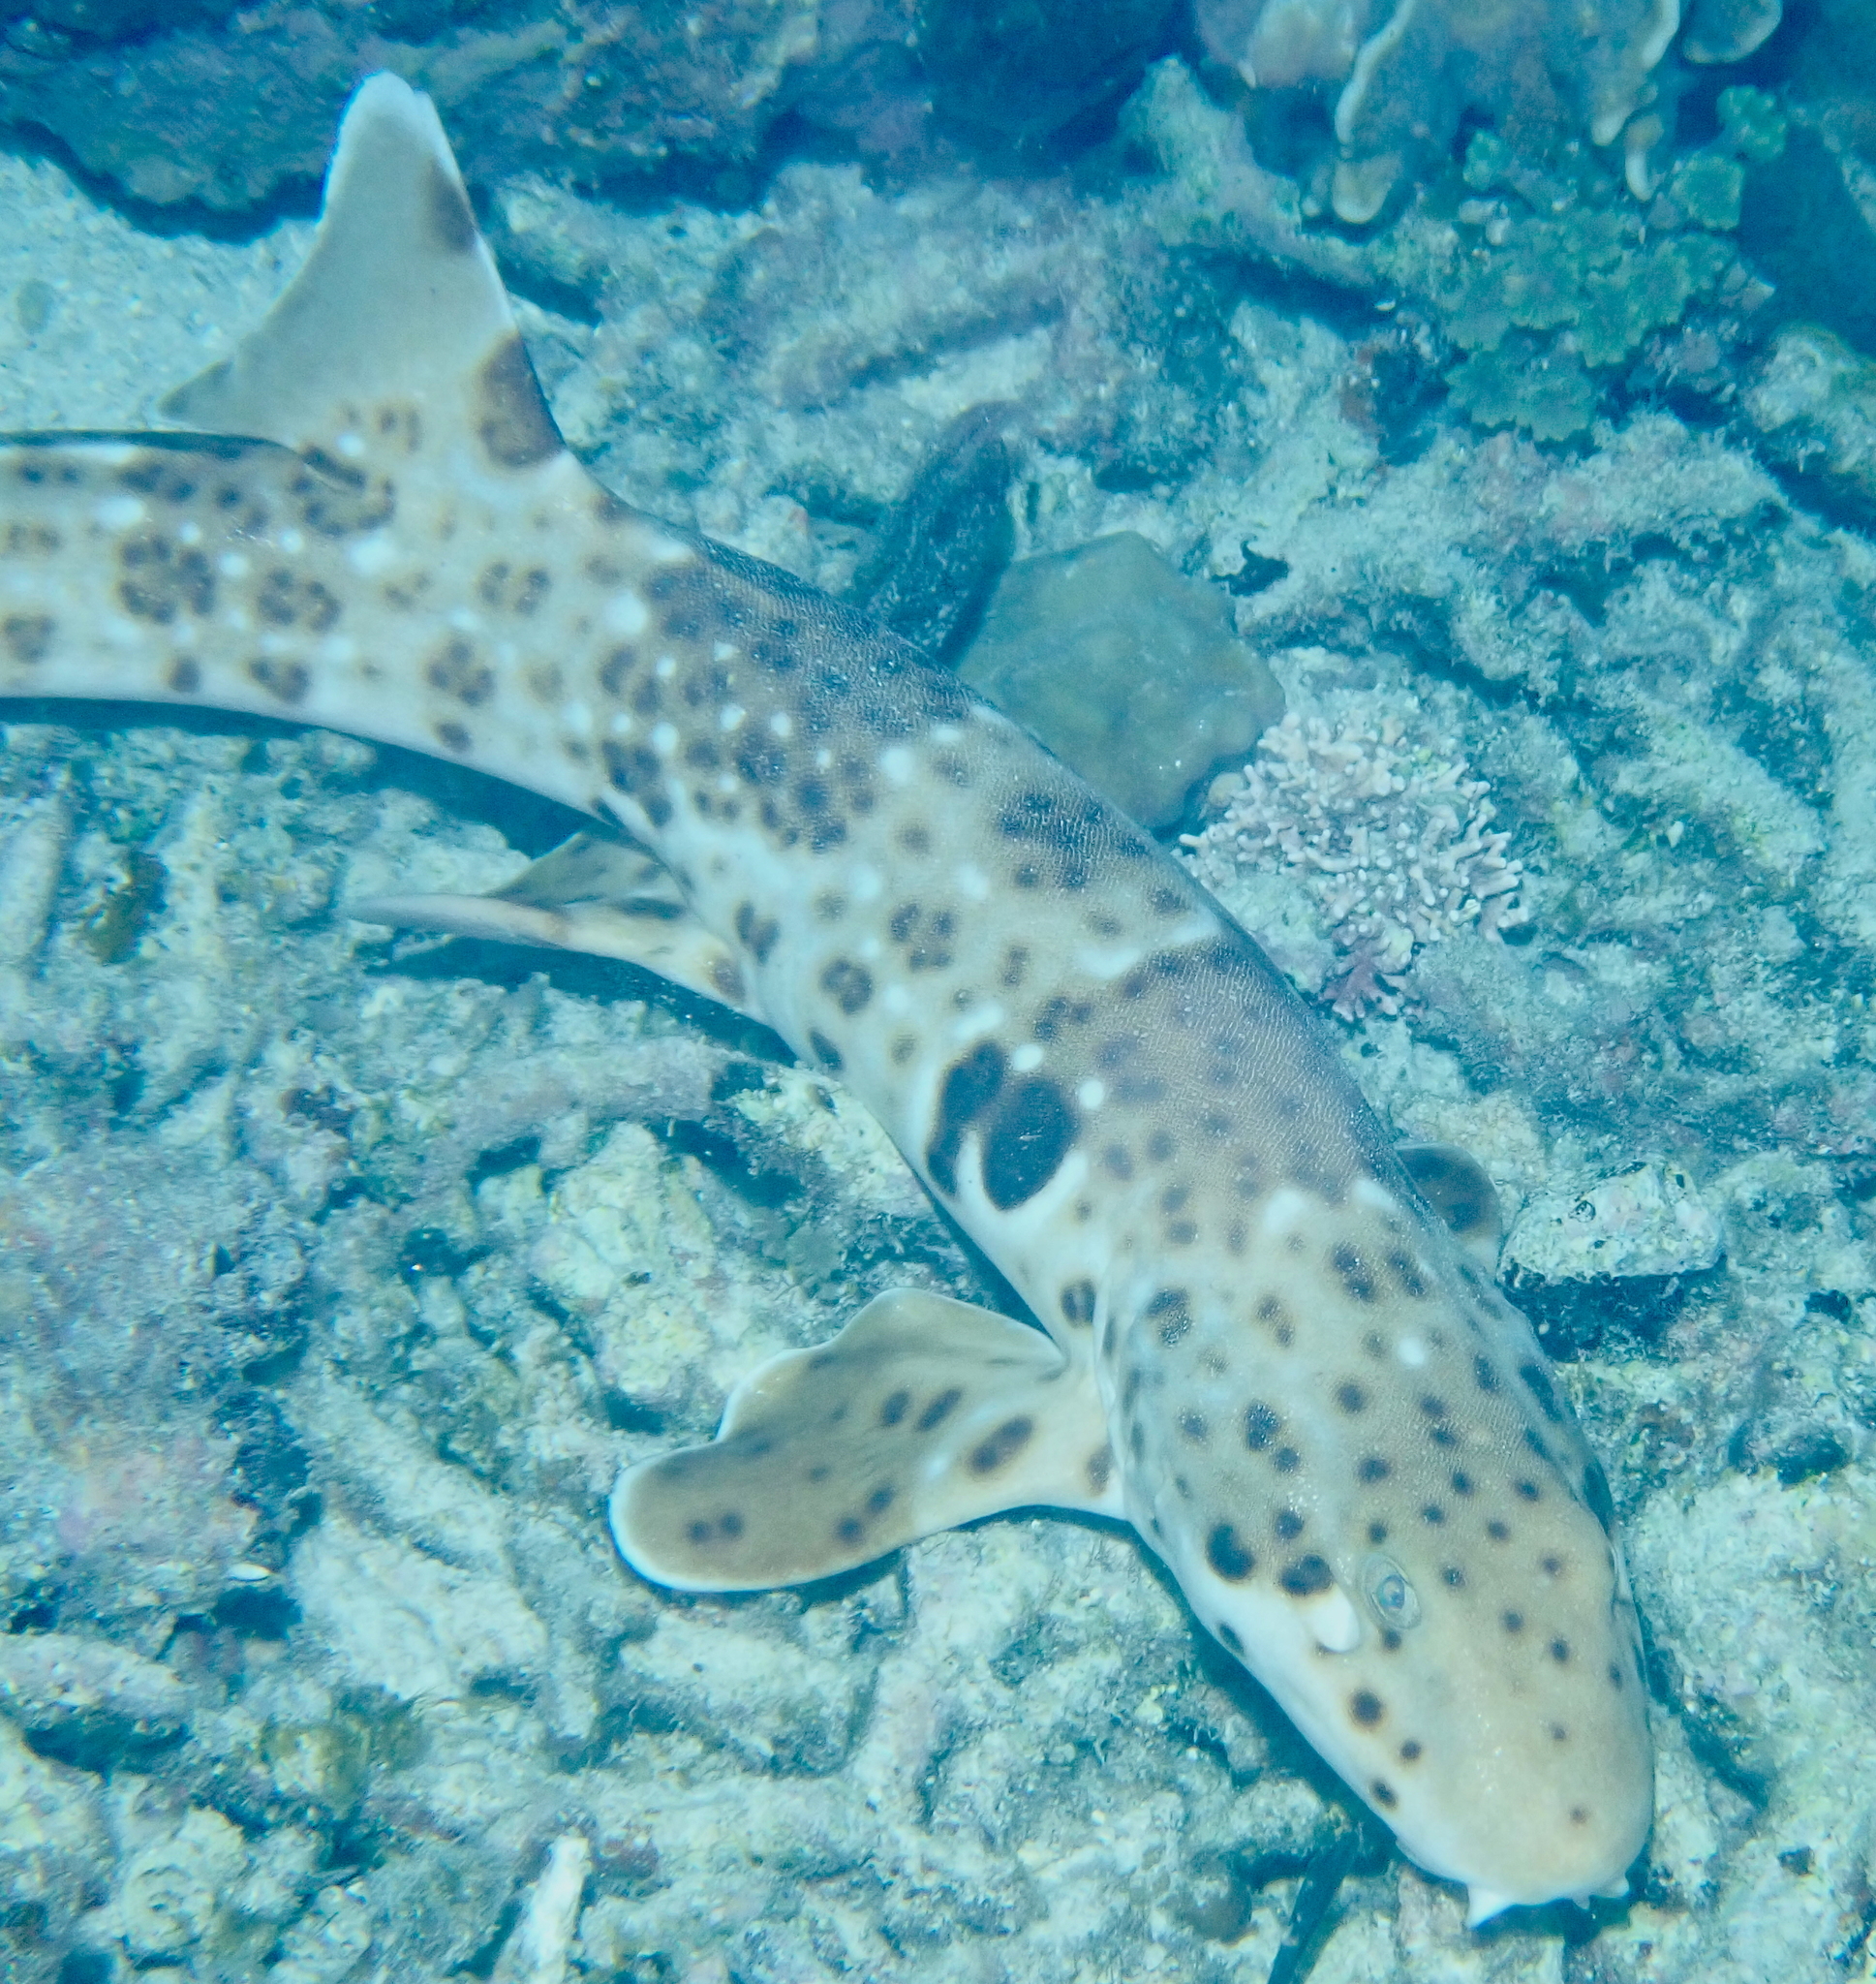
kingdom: Animalia
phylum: Chordata
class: Elasmobranchii
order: Orectolobiformes
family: Hemiscylliidae
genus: Hemiscyllium
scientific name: Hemiscyllium freycineti
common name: Indonesian speckled carpetshark
